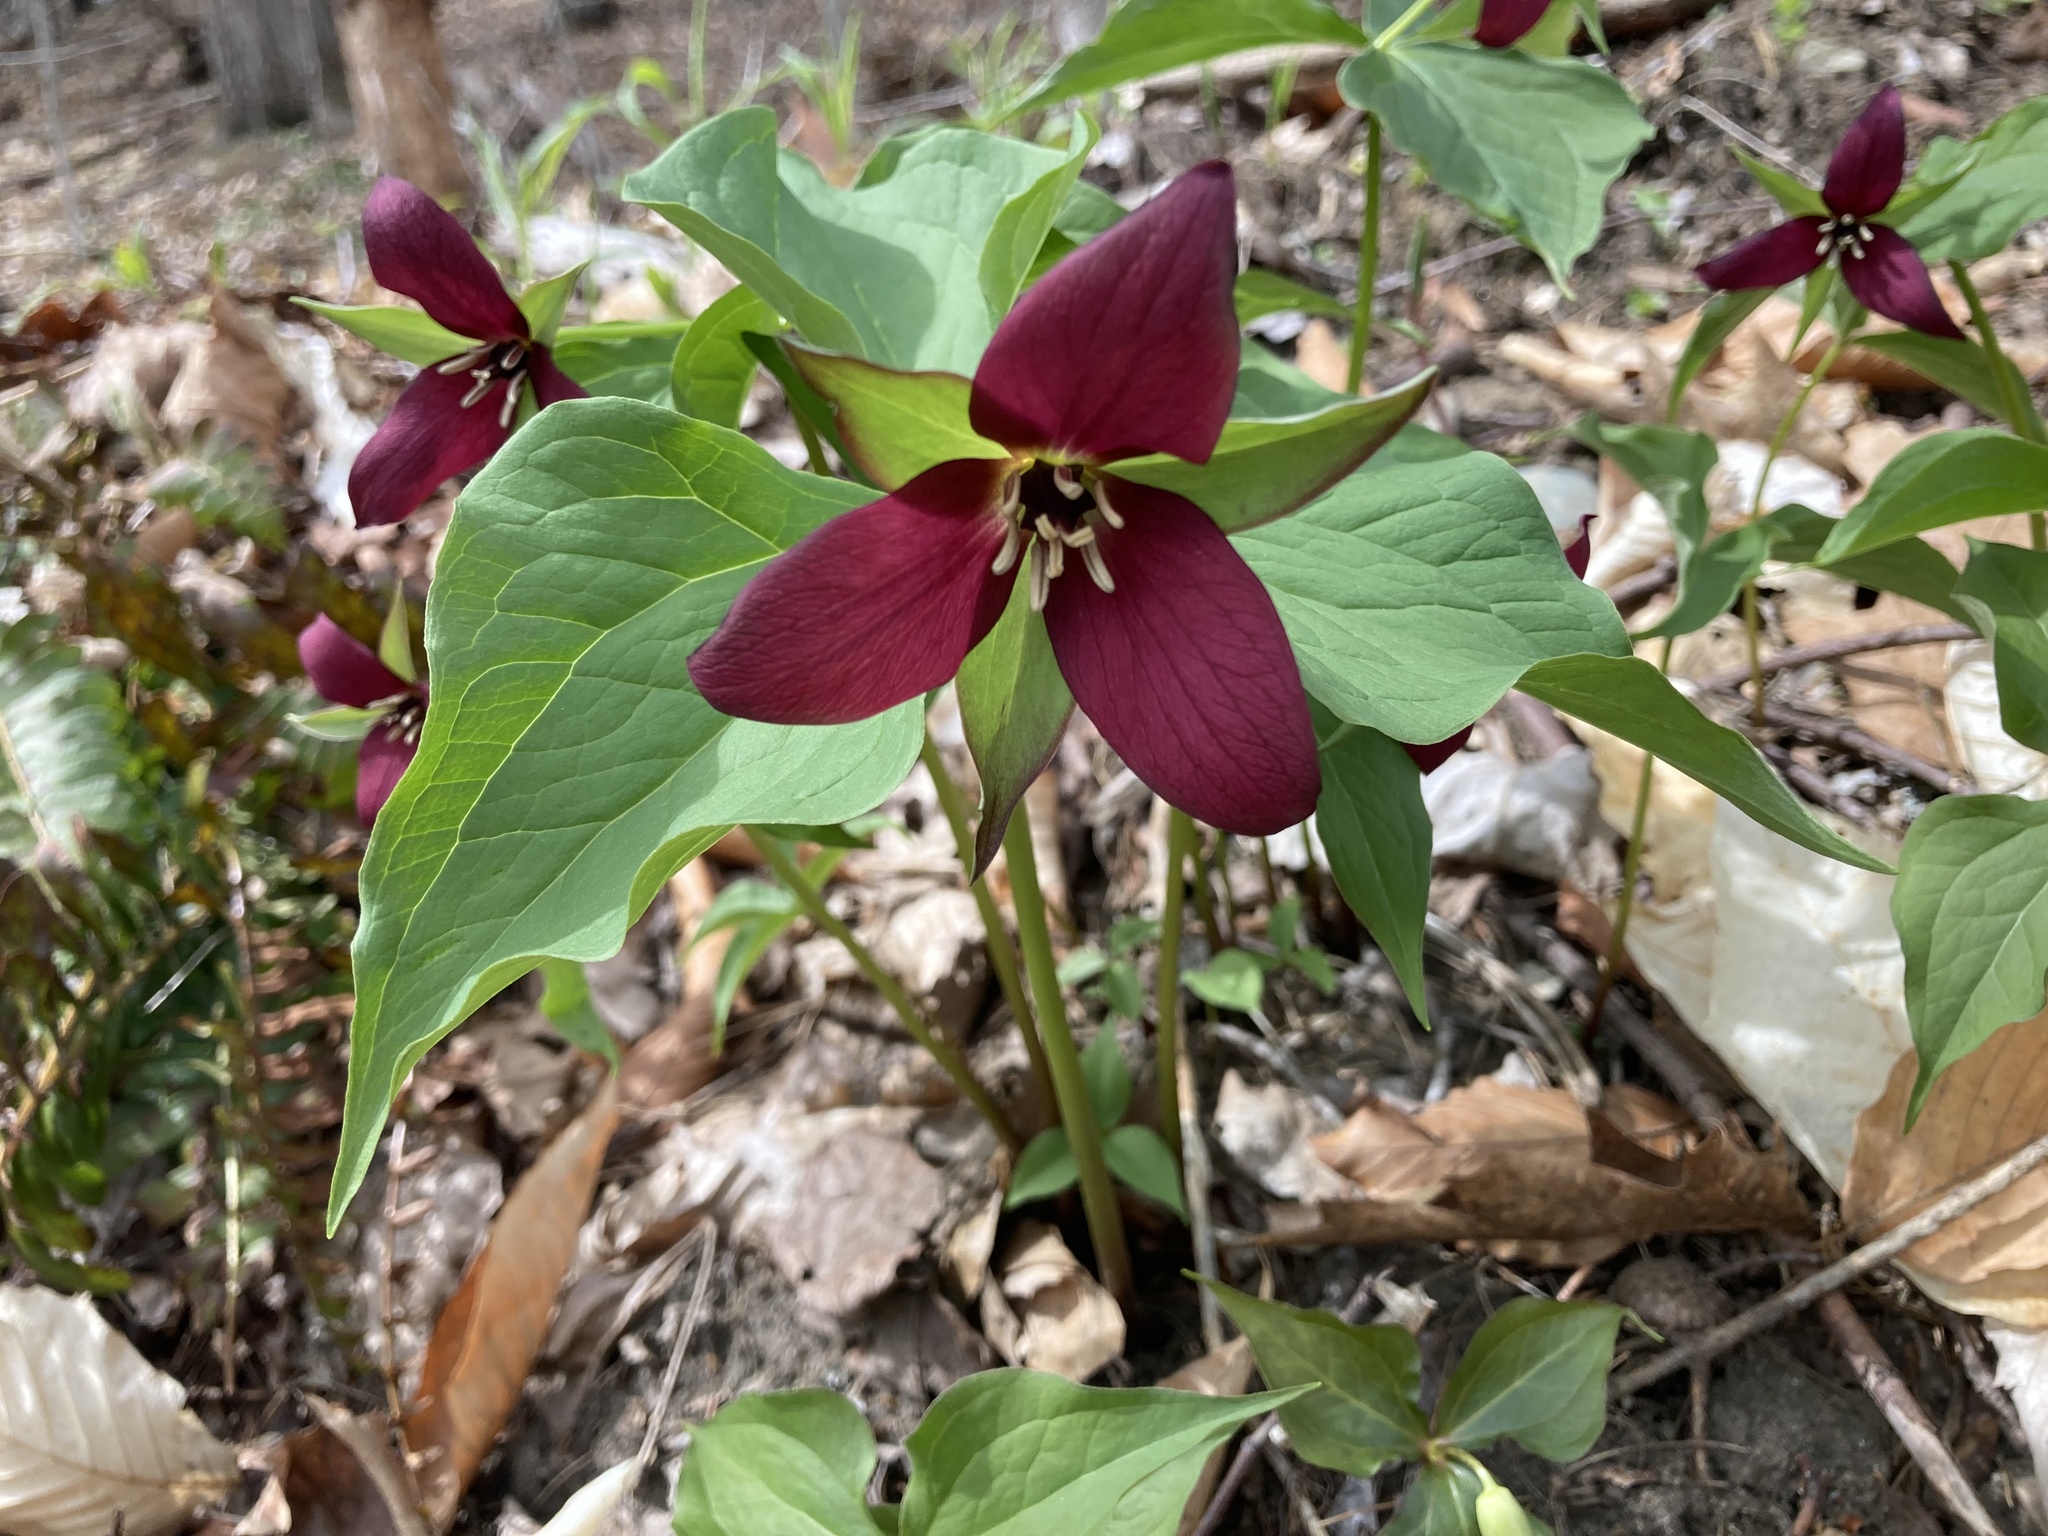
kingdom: Plantae
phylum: Tracheophyta
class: Liliopsida
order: Liliales
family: Melanthiaceae
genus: Trillium
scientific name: Trillium erectum
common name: Purple trillium
